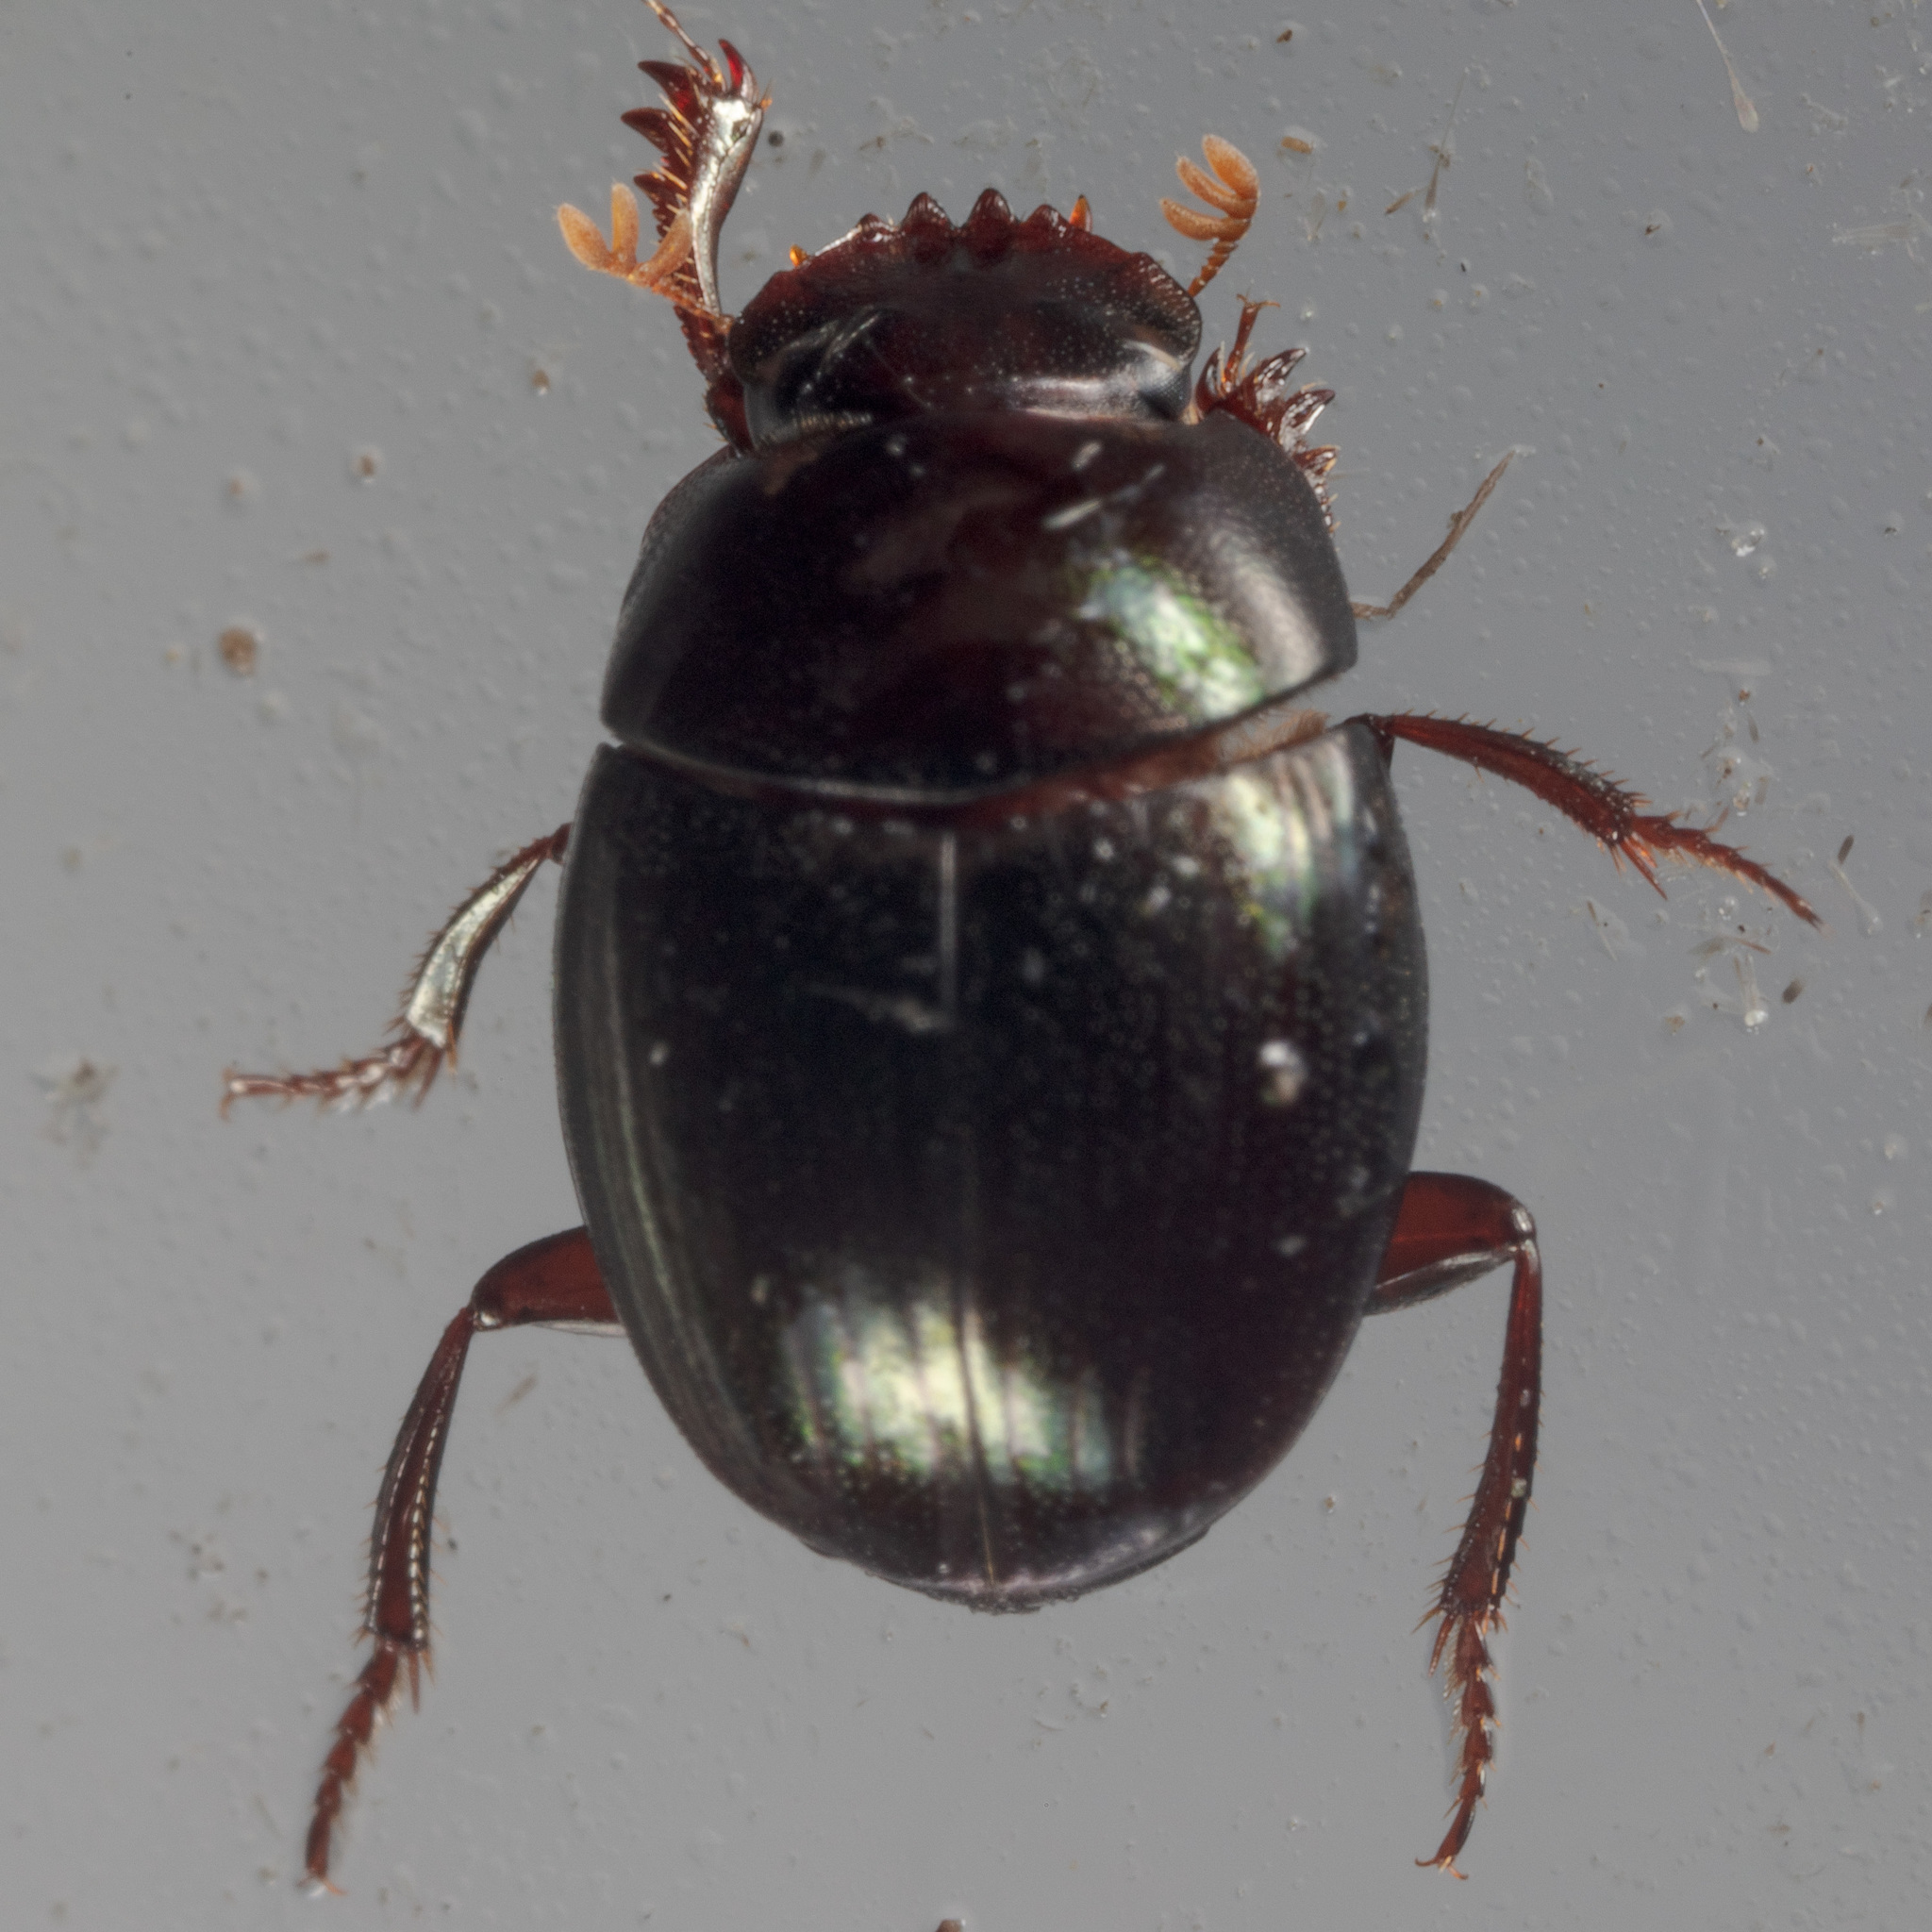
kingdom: Animalia
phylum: Arthropoda
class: Insecta
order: Coleoptera
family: Scarabaeidae
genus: Pseudocanthon
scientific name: Pseudocanthon perplexus
